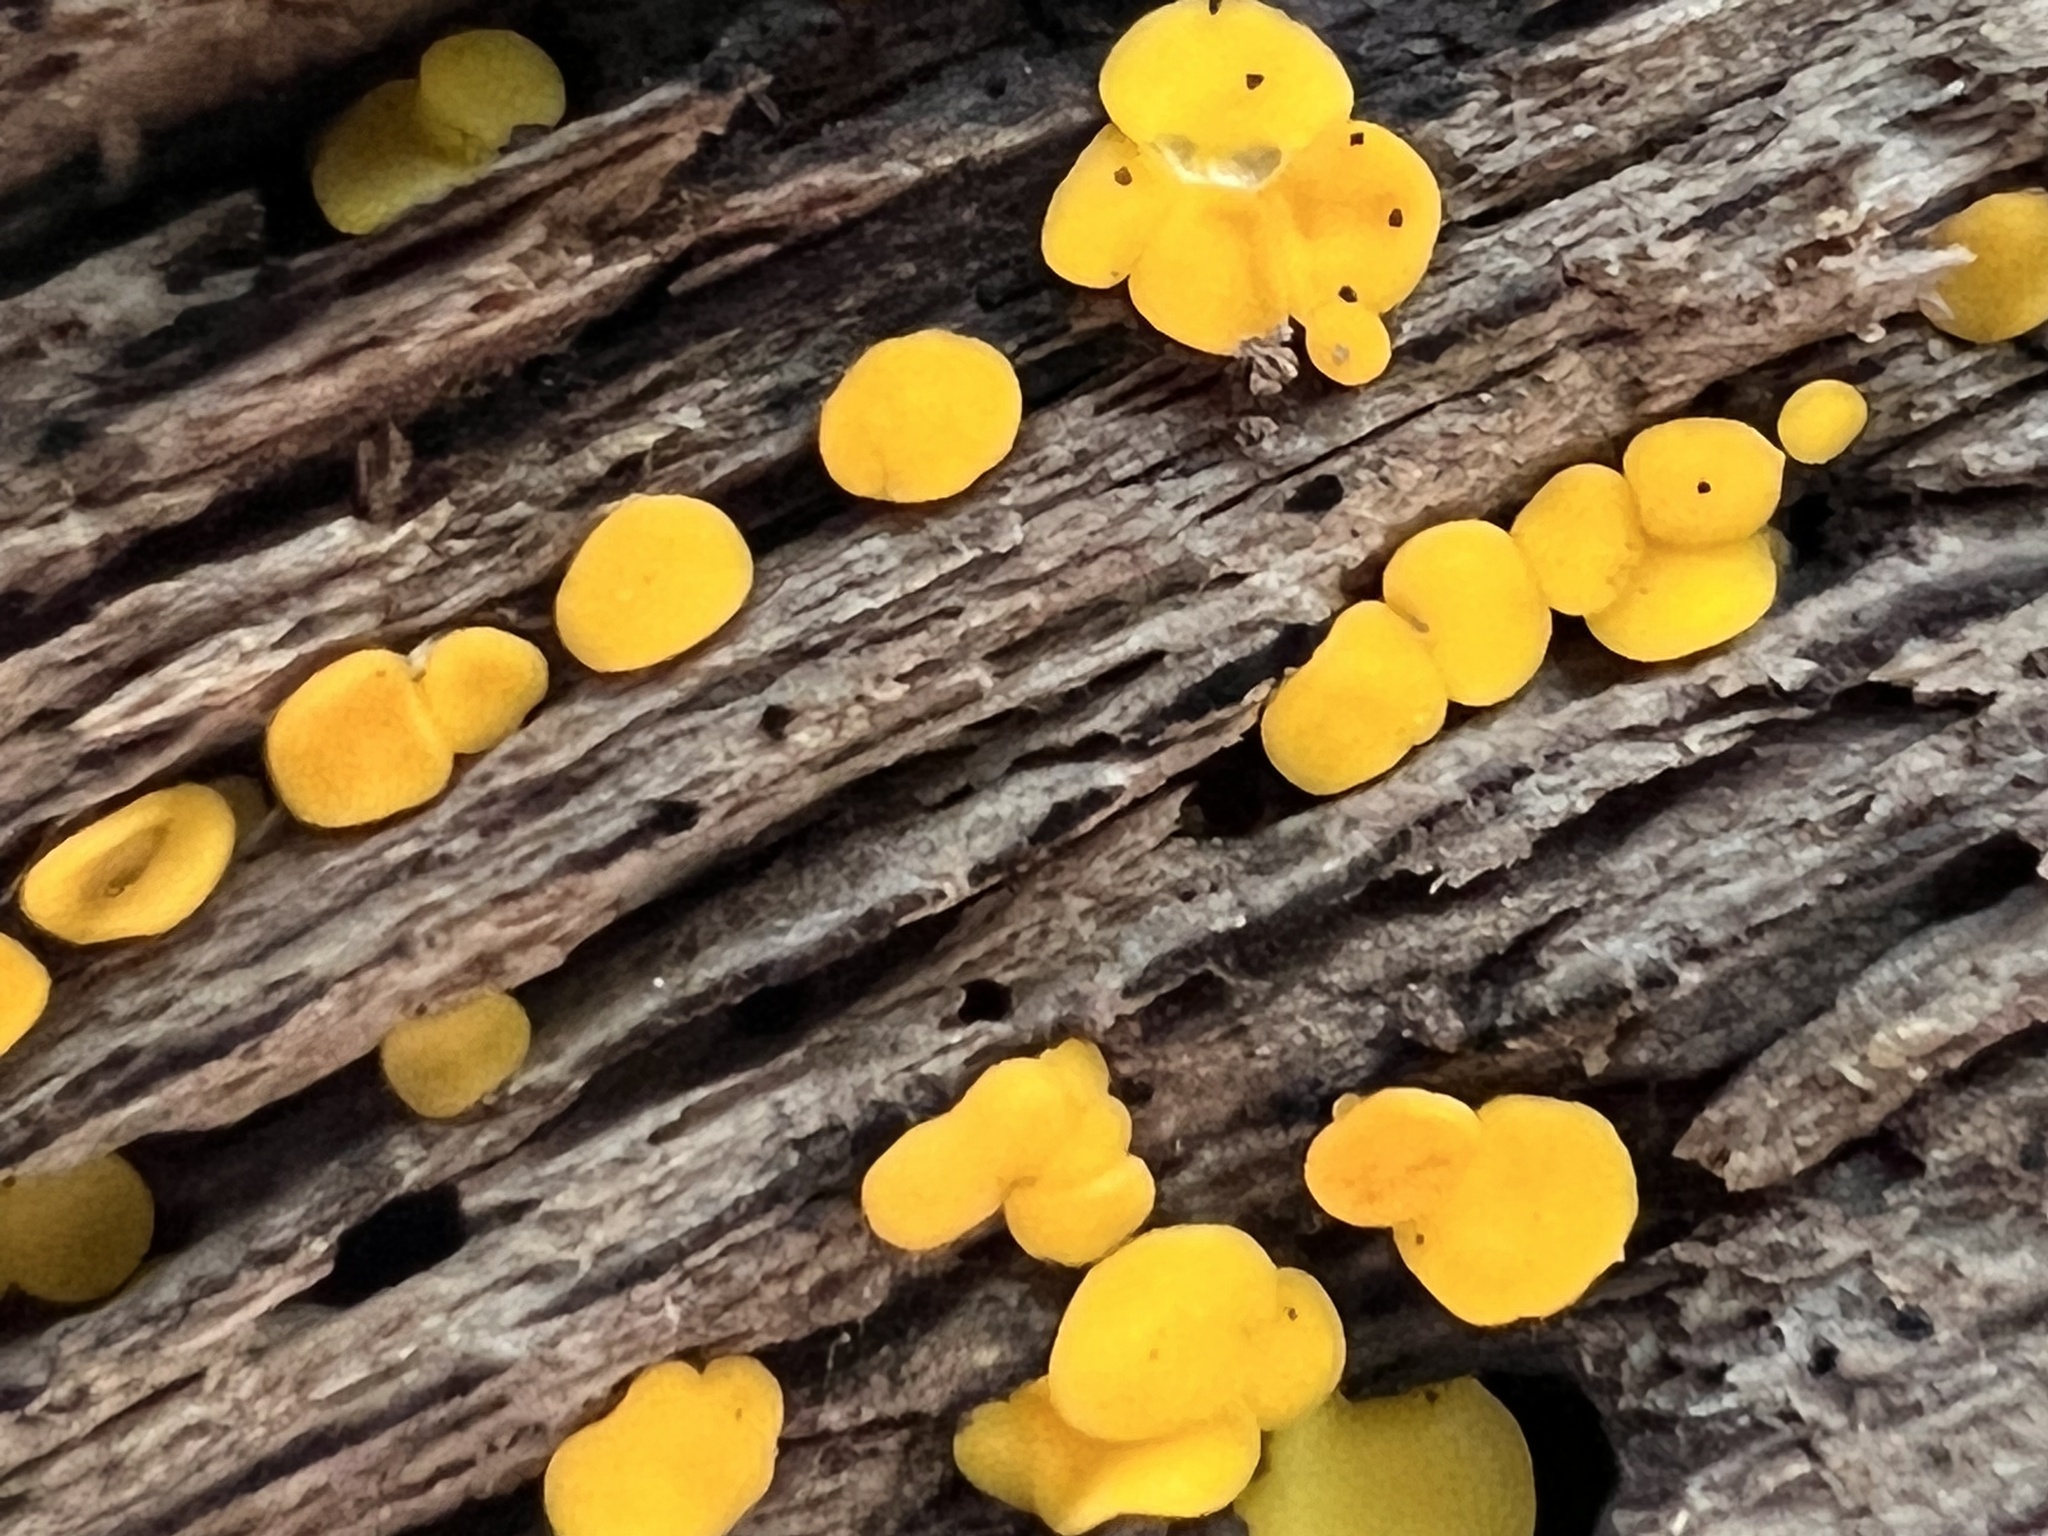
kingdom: Fungi
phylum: Ascomycota
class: Leotiomycetes
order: Helotiales
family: Pezizellaceae
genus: Calycina
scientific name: Calycina citrina
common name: Yellow fairy cups
